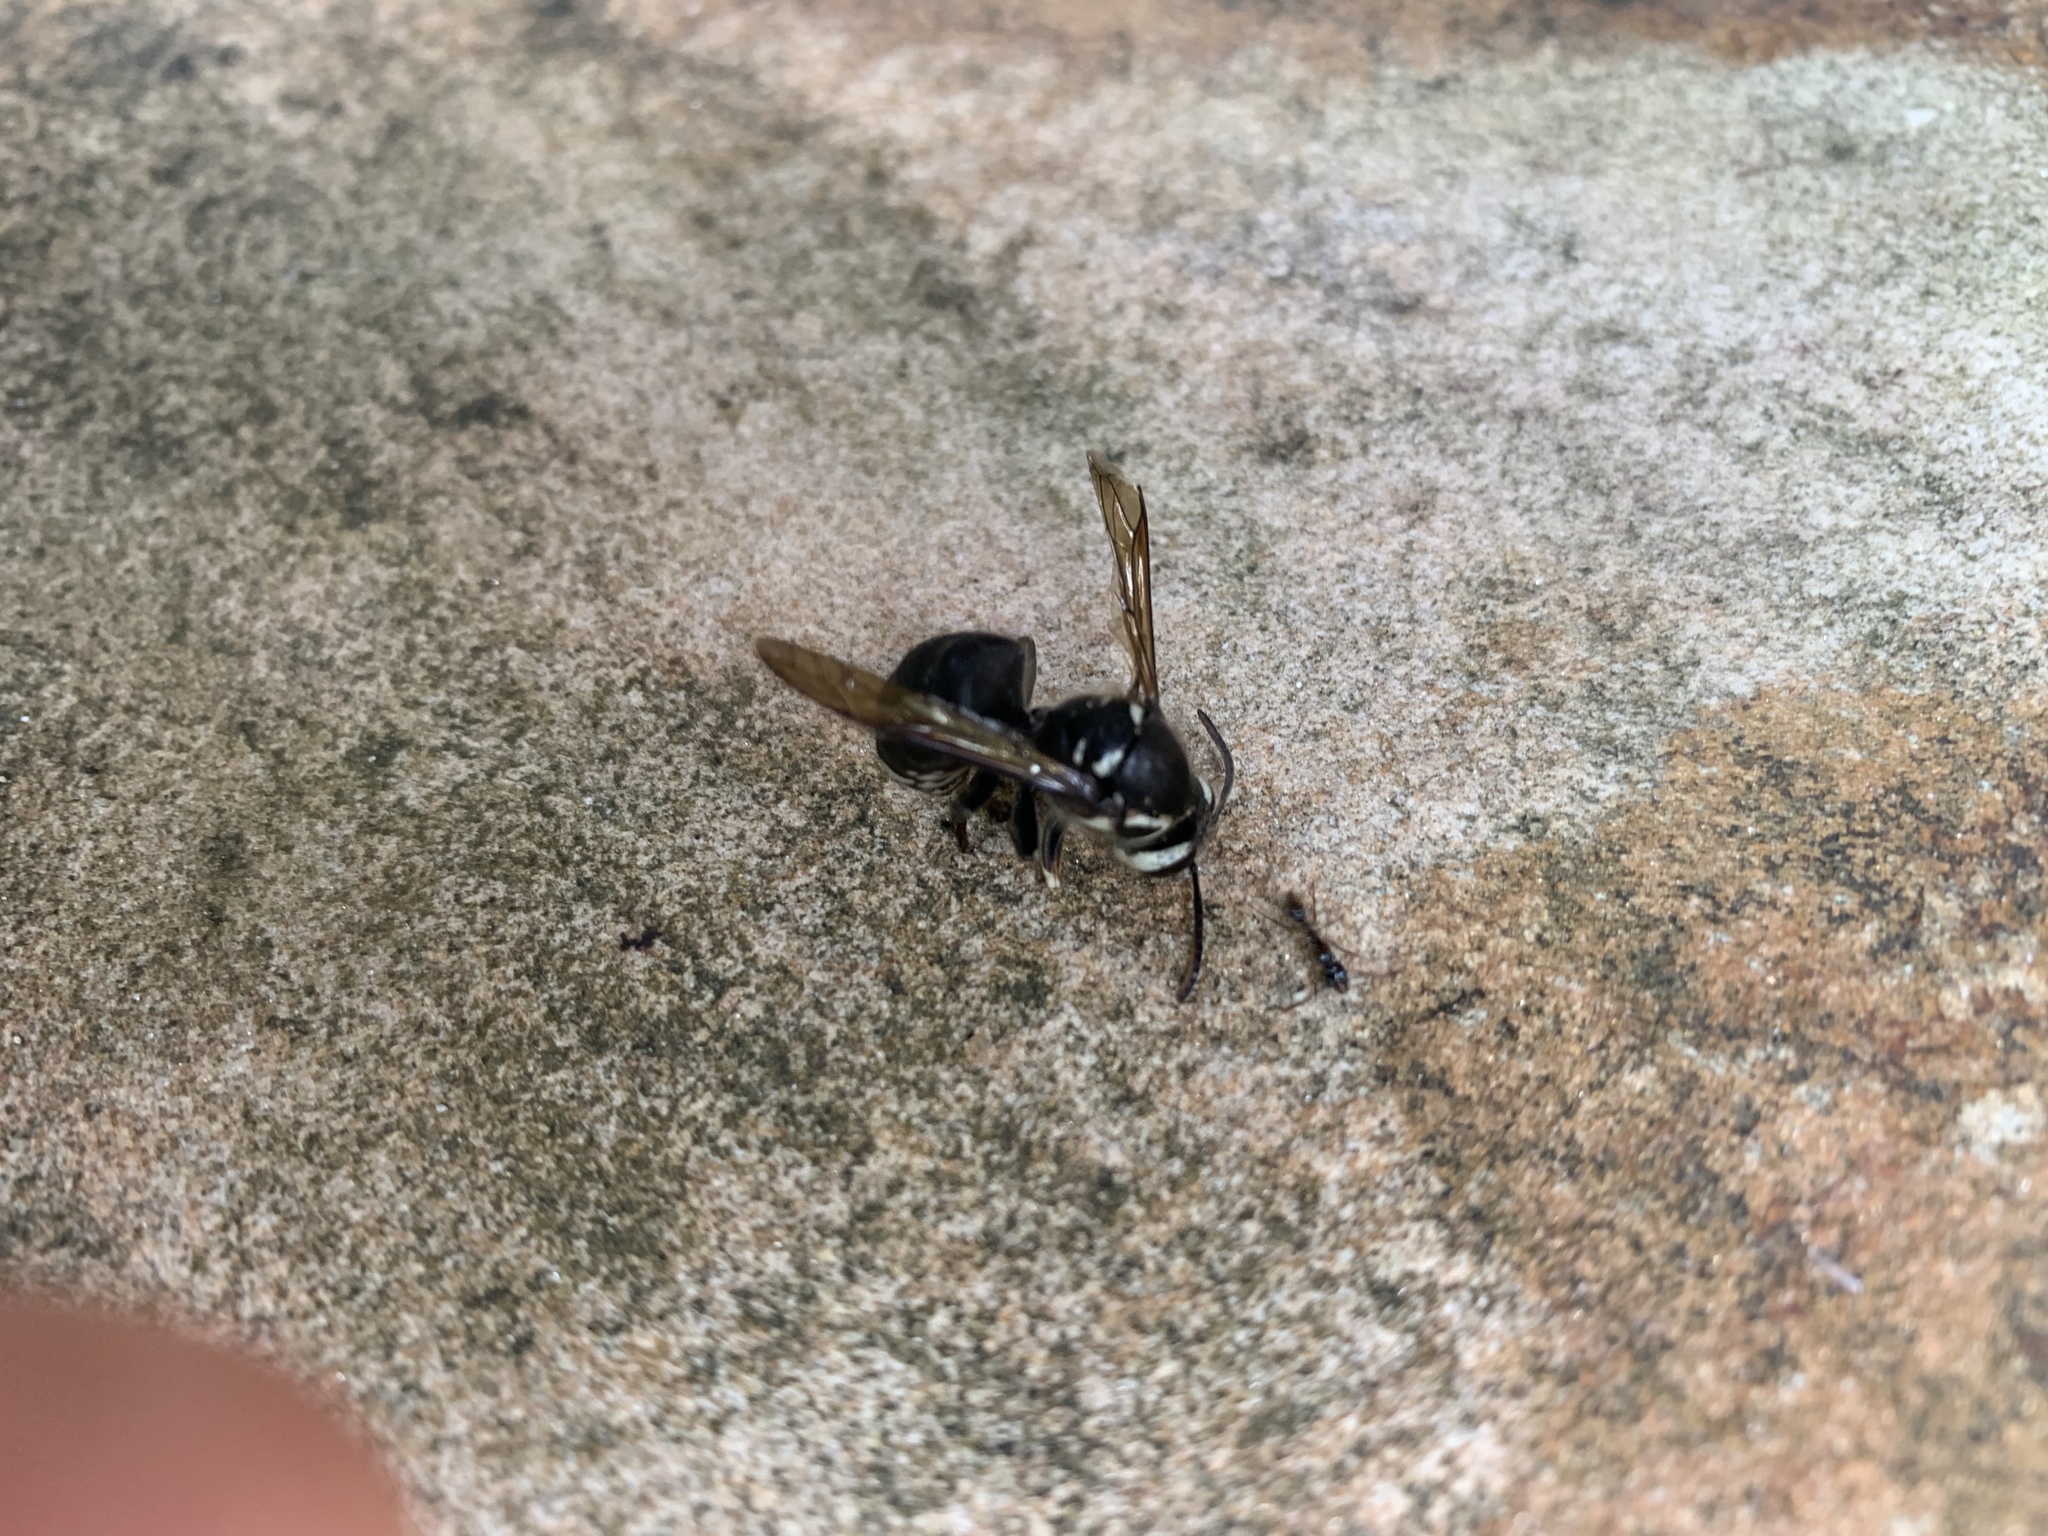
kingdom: Animalia
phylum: Arthropoda
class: Insecta
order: Hymenoptera
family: Vespidae
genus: Dolichovespula
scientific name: Dolichovespula maculata
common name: Bald-faced hornet
